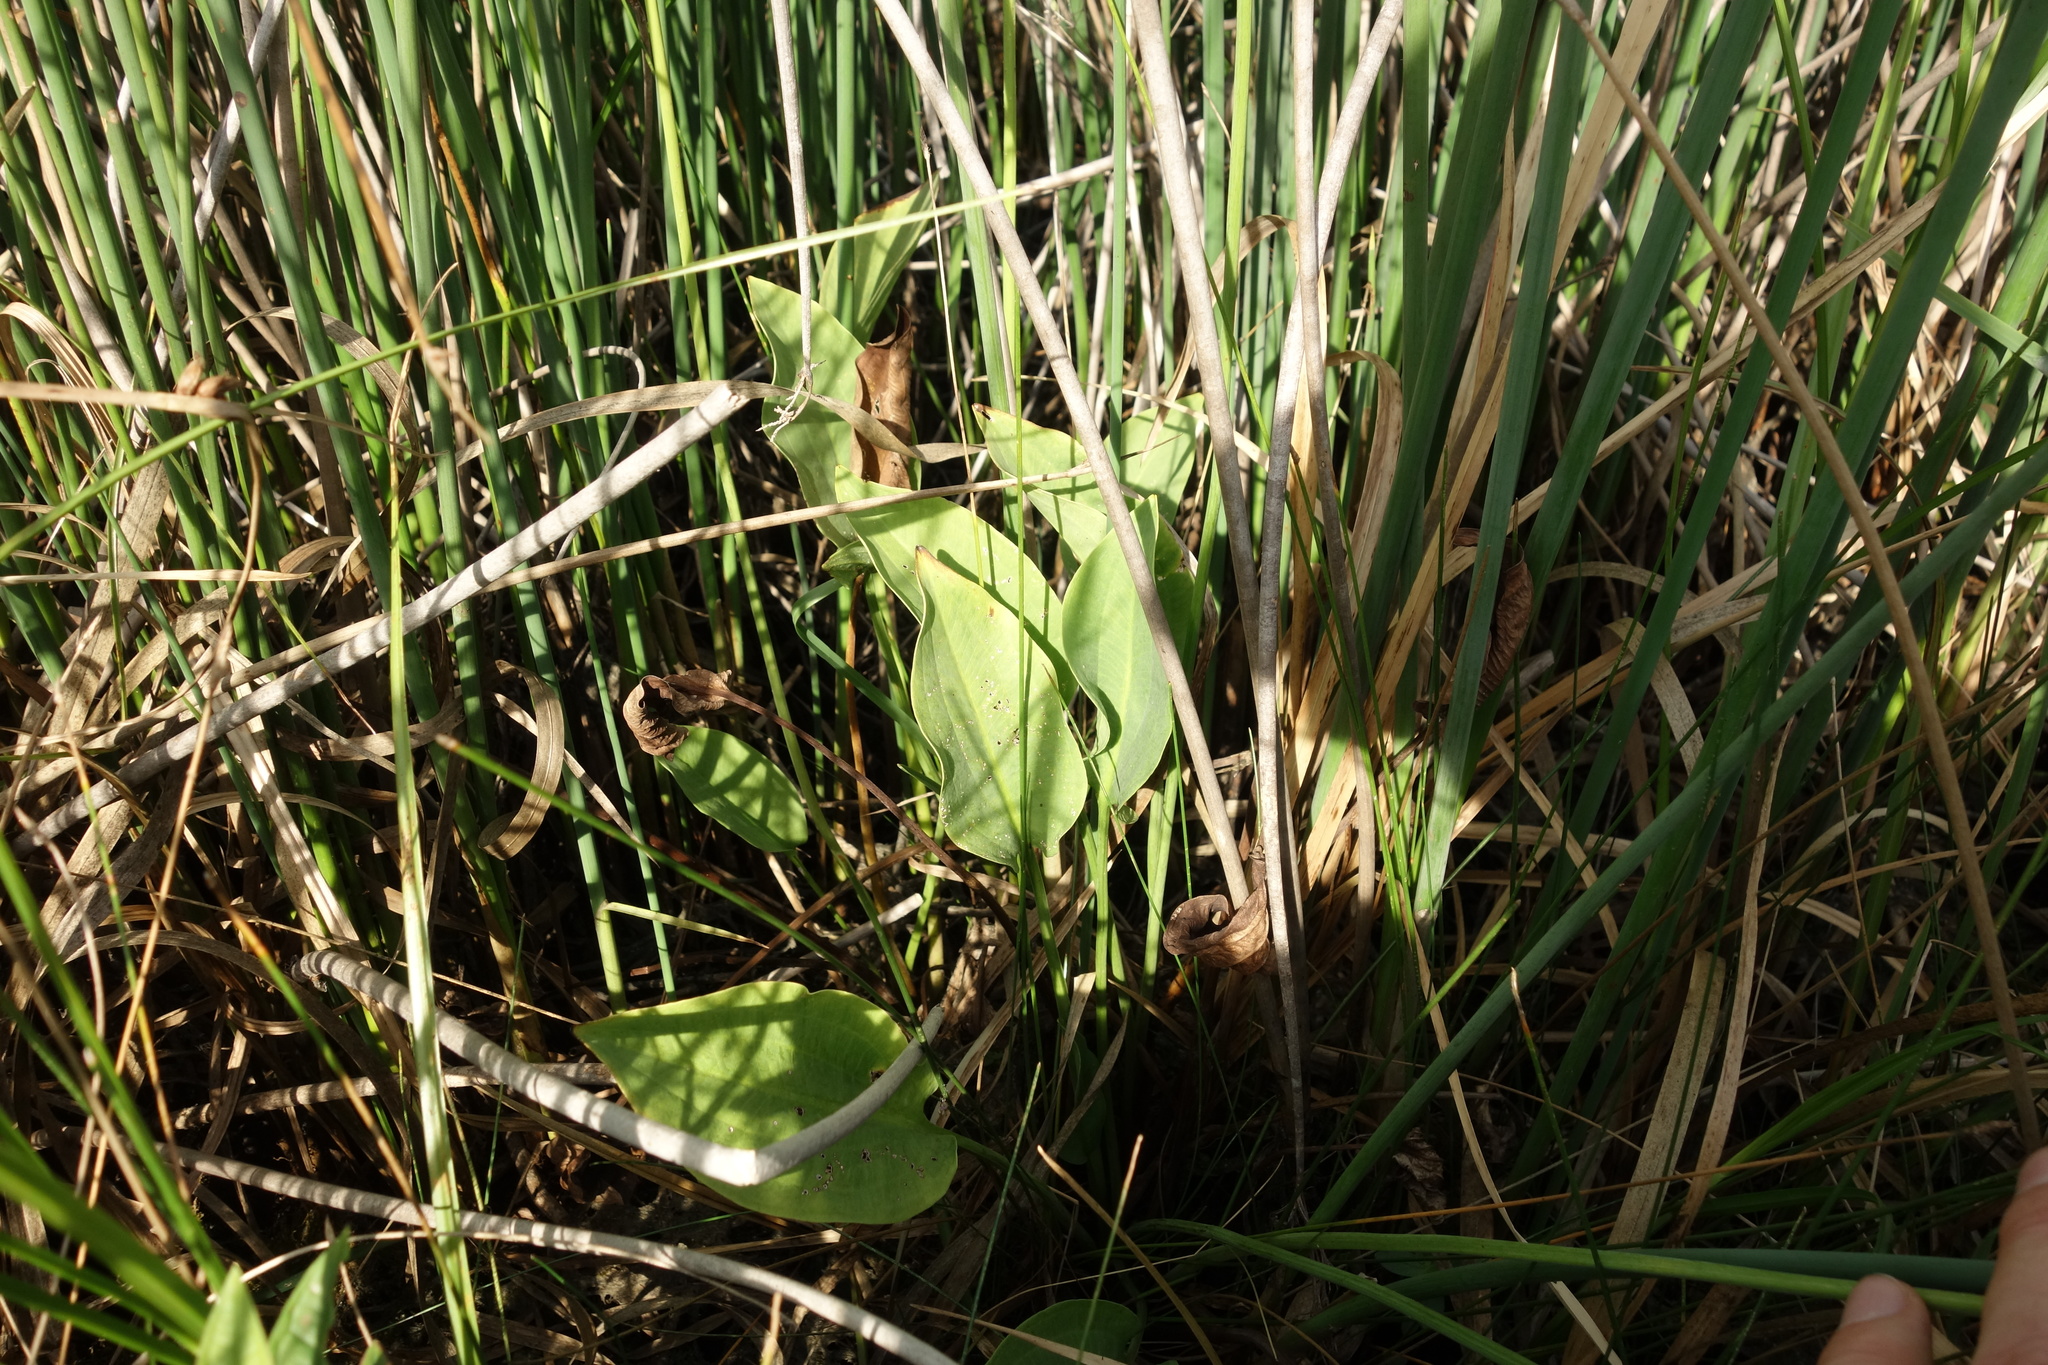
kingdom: Plantae
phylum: Tracheophyta
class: Liliopsida
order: Alismatales
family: Alismataceae
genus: Alisma
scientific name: Alisma plantago-aquatica
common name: Water-plantain
